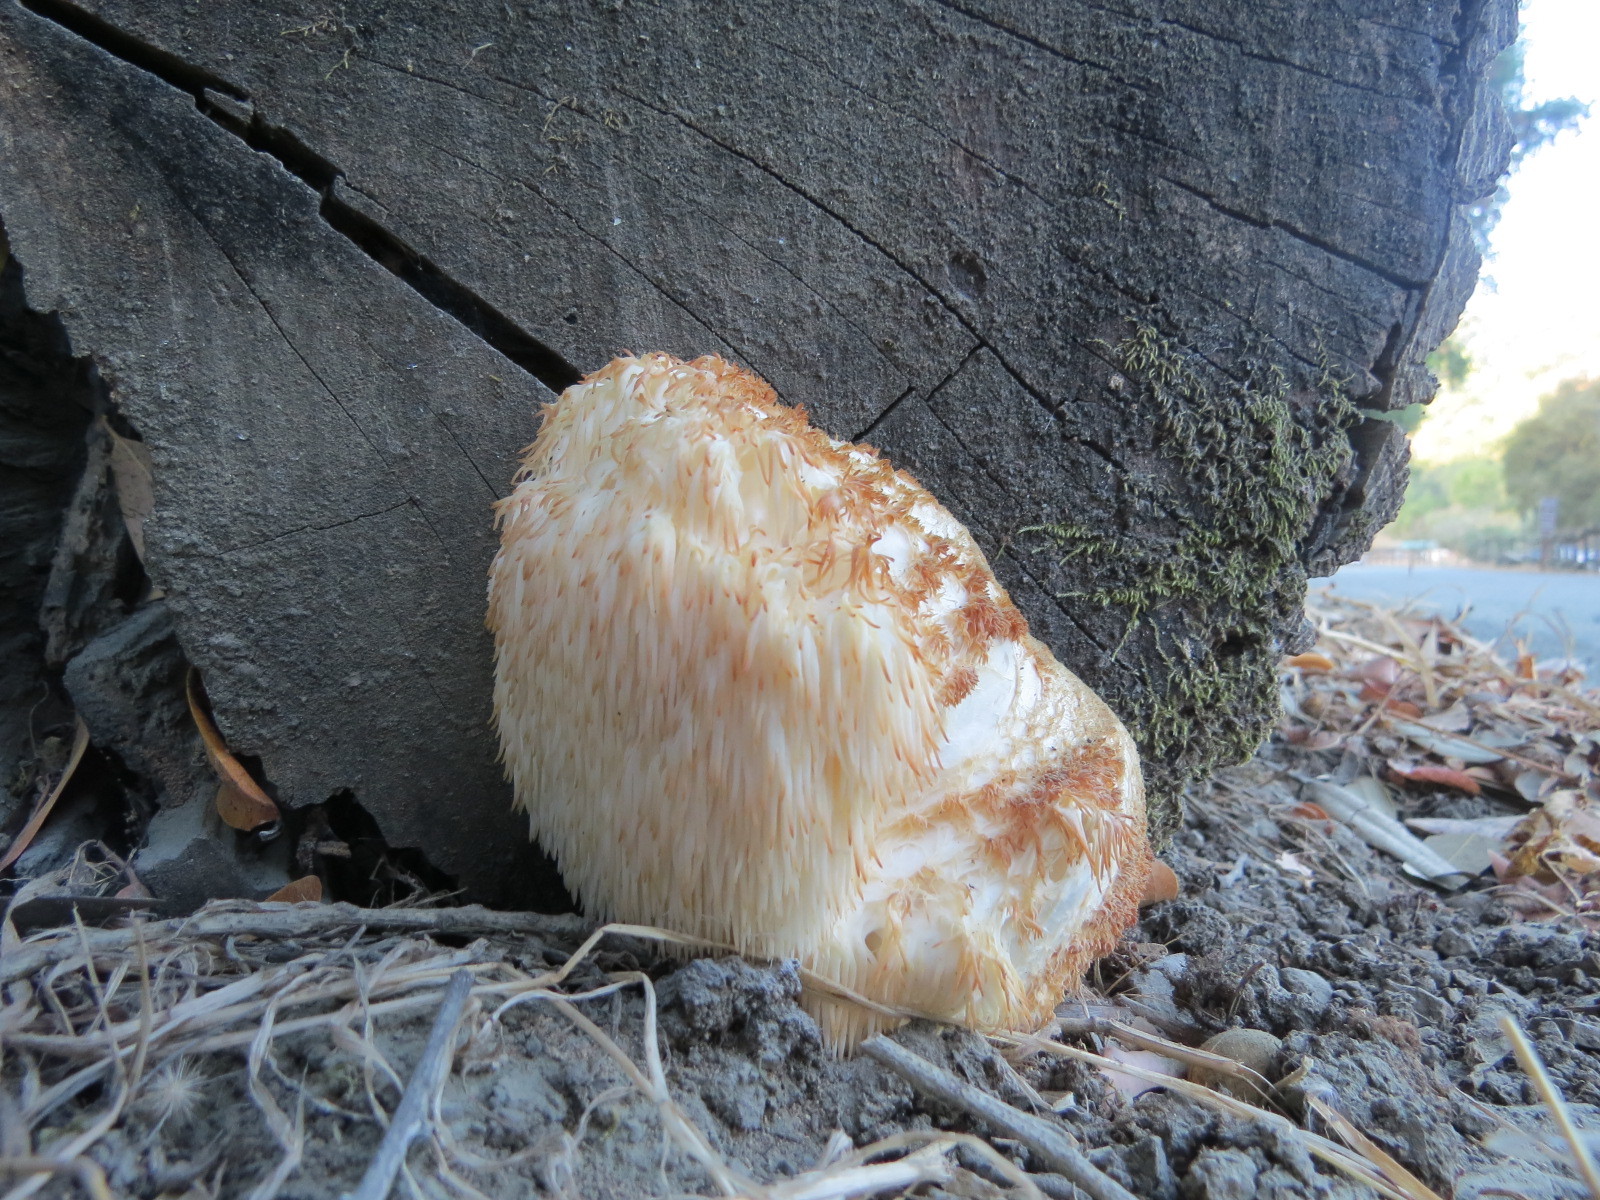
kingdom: Fungi
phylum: Basidiomycota
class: Agaricomycetes
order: Russulales
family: Hericiaceae
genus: Hericium
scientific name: Hericium erinaceus
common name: Bearded tooth
